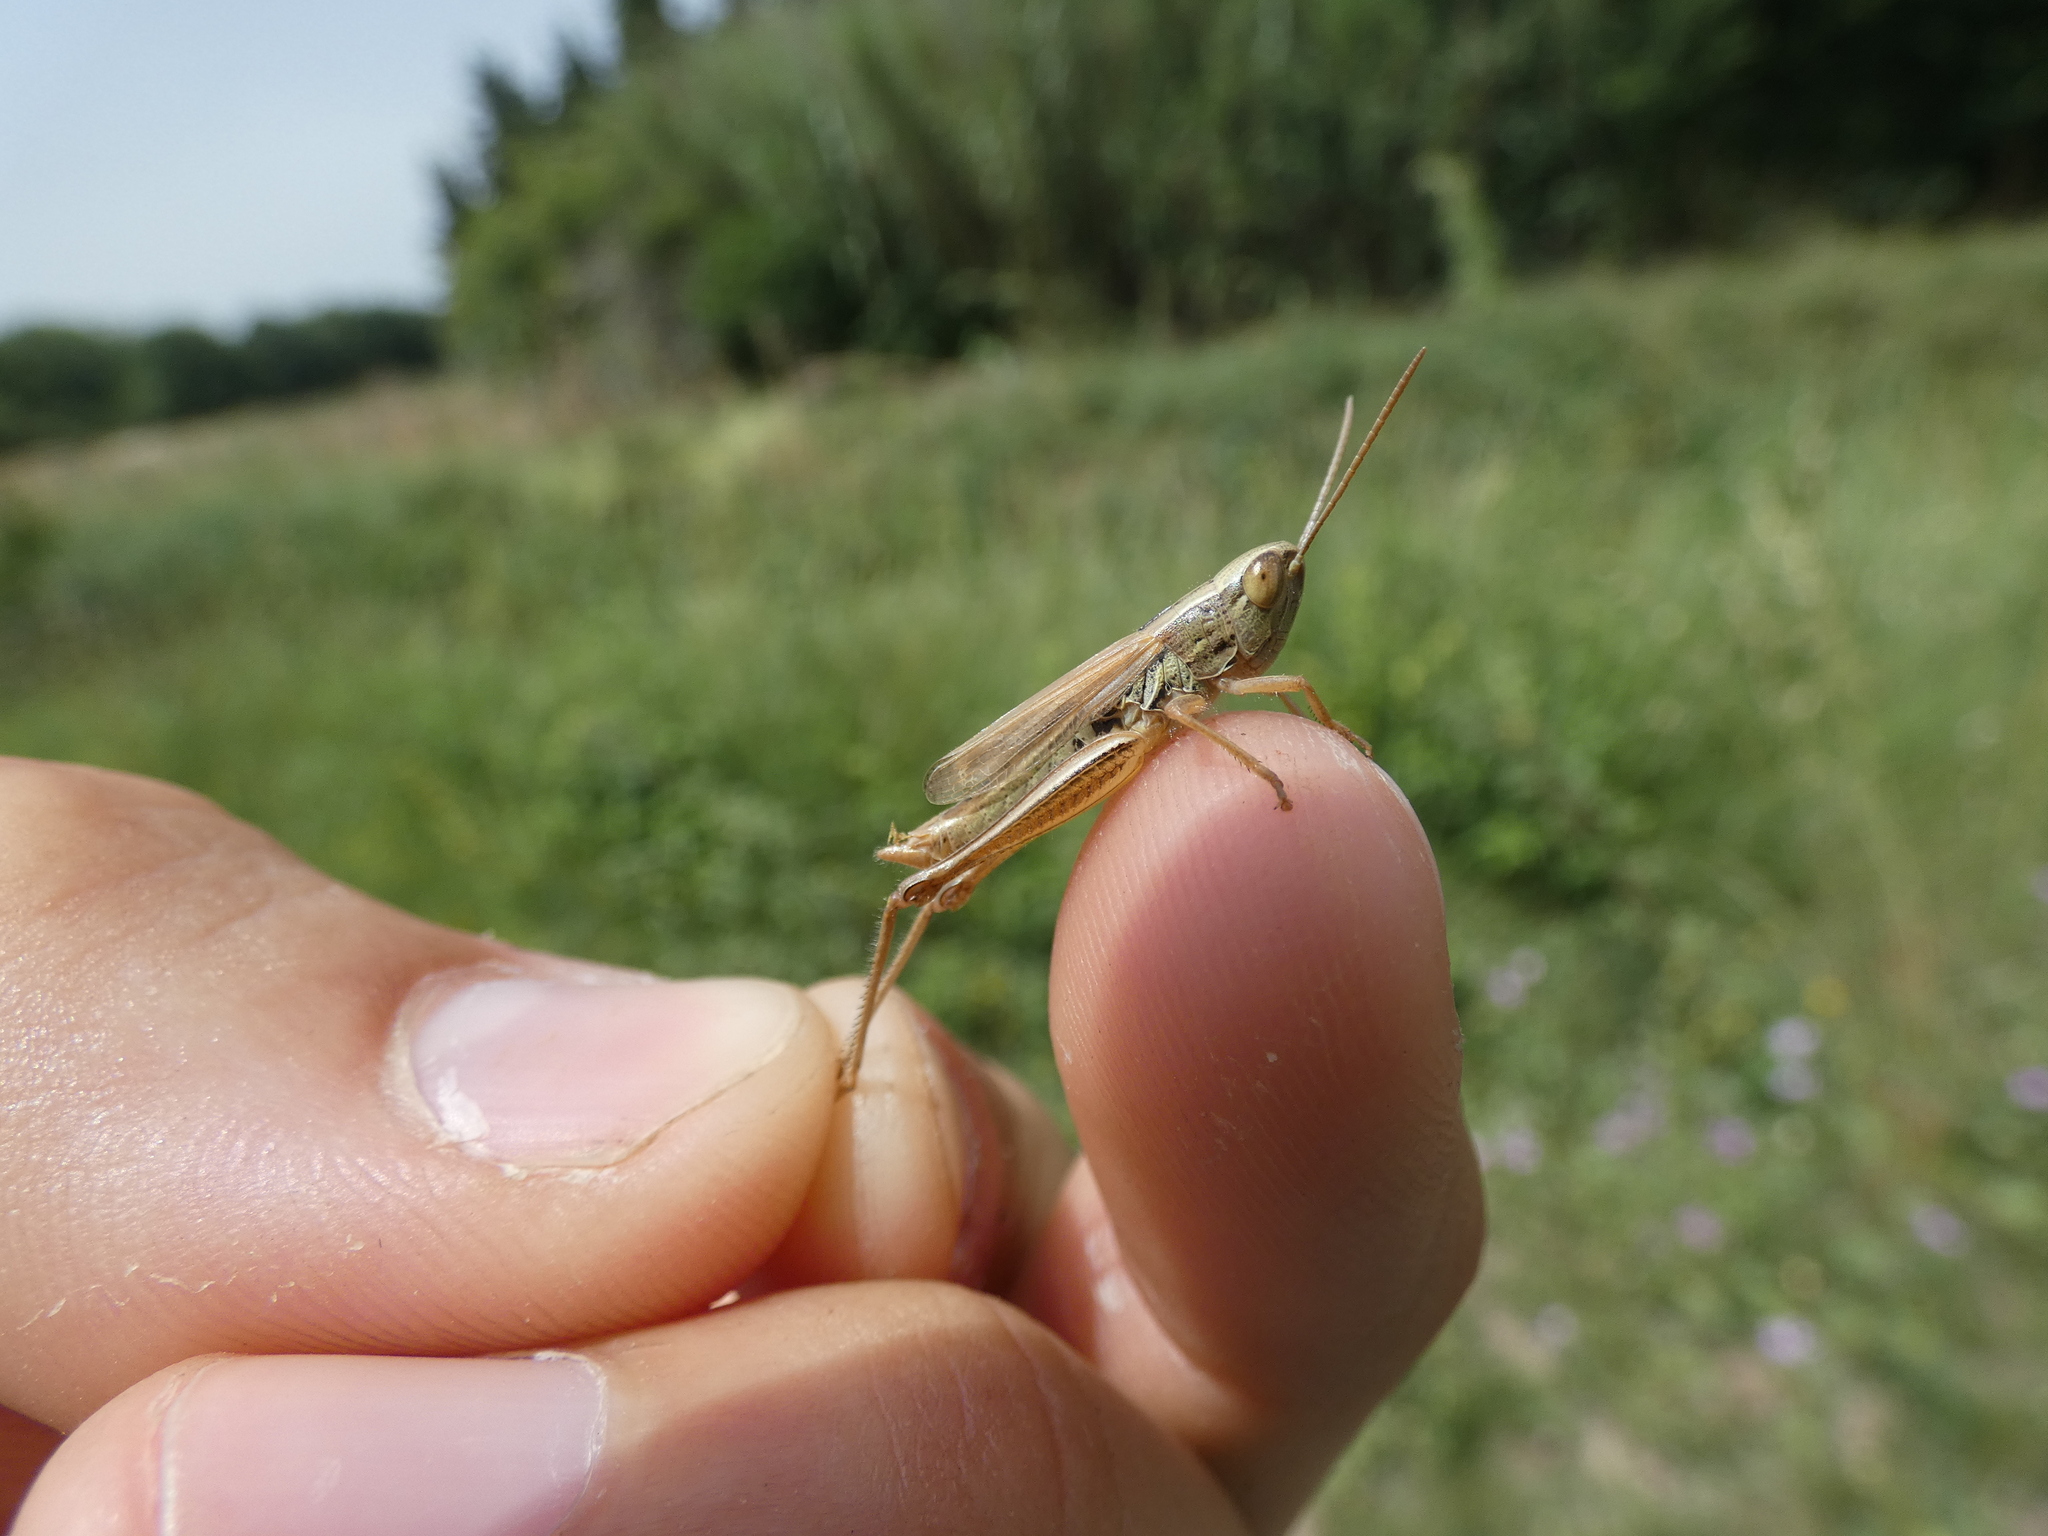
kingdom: Animalia
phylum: Arthropoda
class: Insecta
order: Orthoptera
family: Acrididae
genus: Euchorthippus
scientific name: Euchorthippus declivus
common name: Common straw grasshopper
